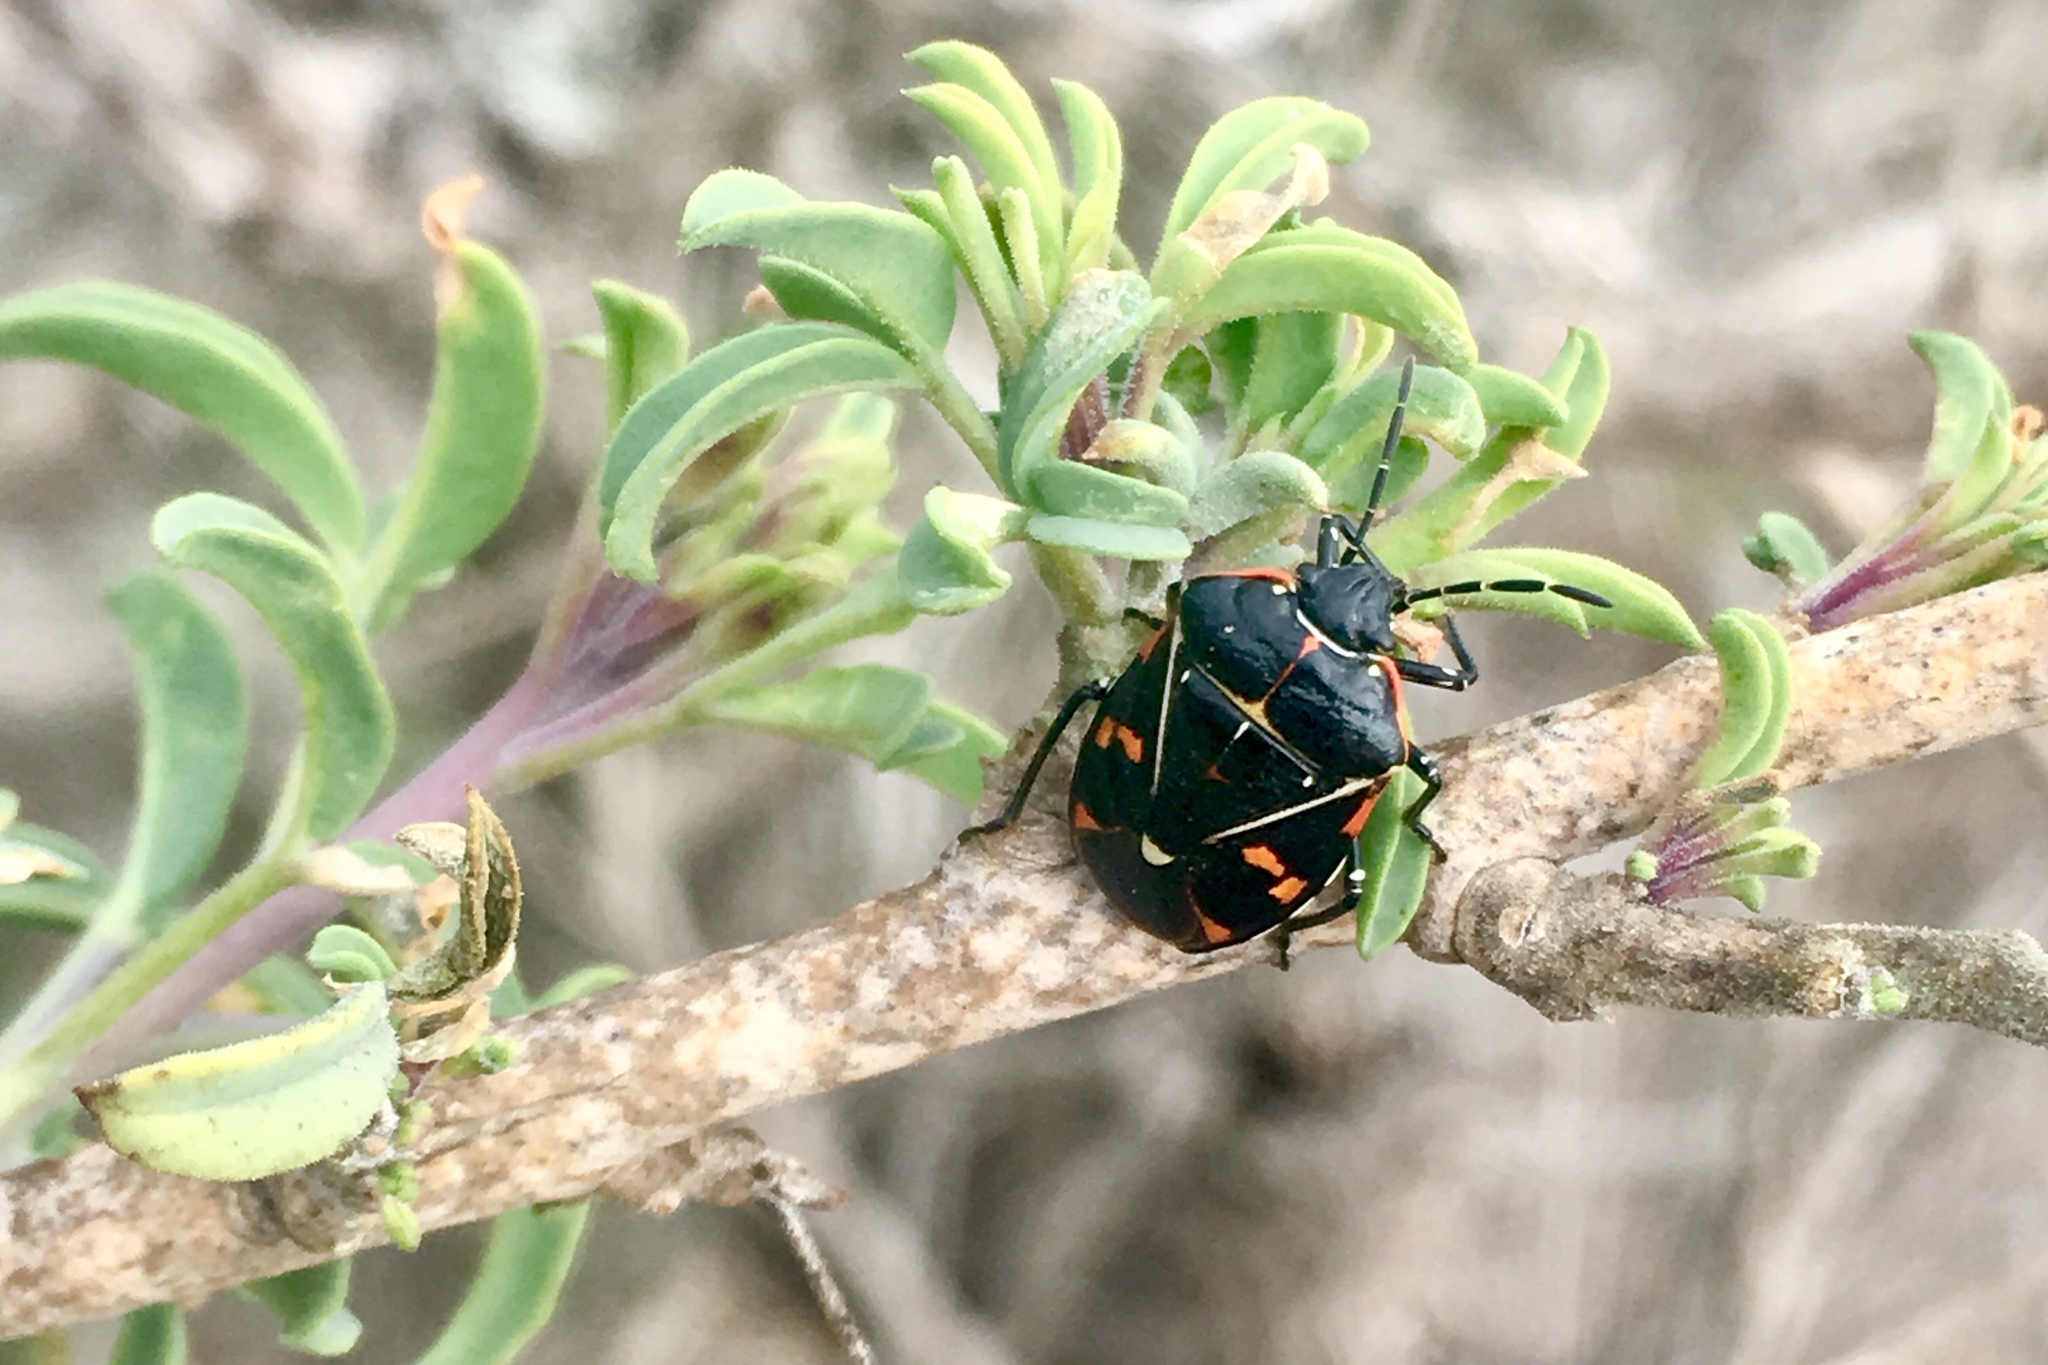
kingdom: Animalia
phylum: Arthropoda
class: Insecta
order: Hemiptera
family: Pentatomidae
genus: Murgantia
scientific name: Murgantia histrionica
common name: Harlequin bug
